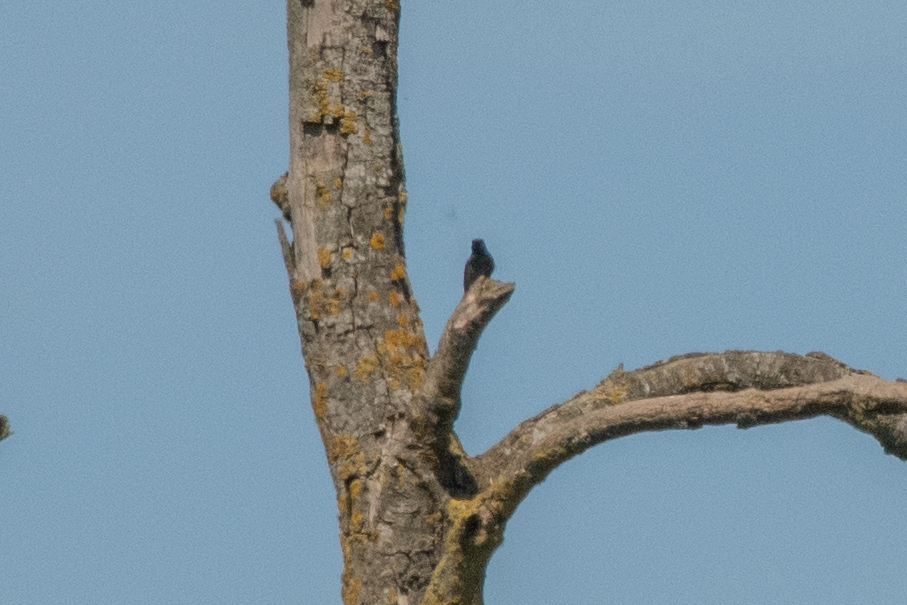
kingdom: Animalia
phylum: Chordata
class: Aves
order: Passeriformes
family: Muscicapidae
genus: Phoenicurus
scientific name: Phoenicurus ochruros
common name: Black redstart
